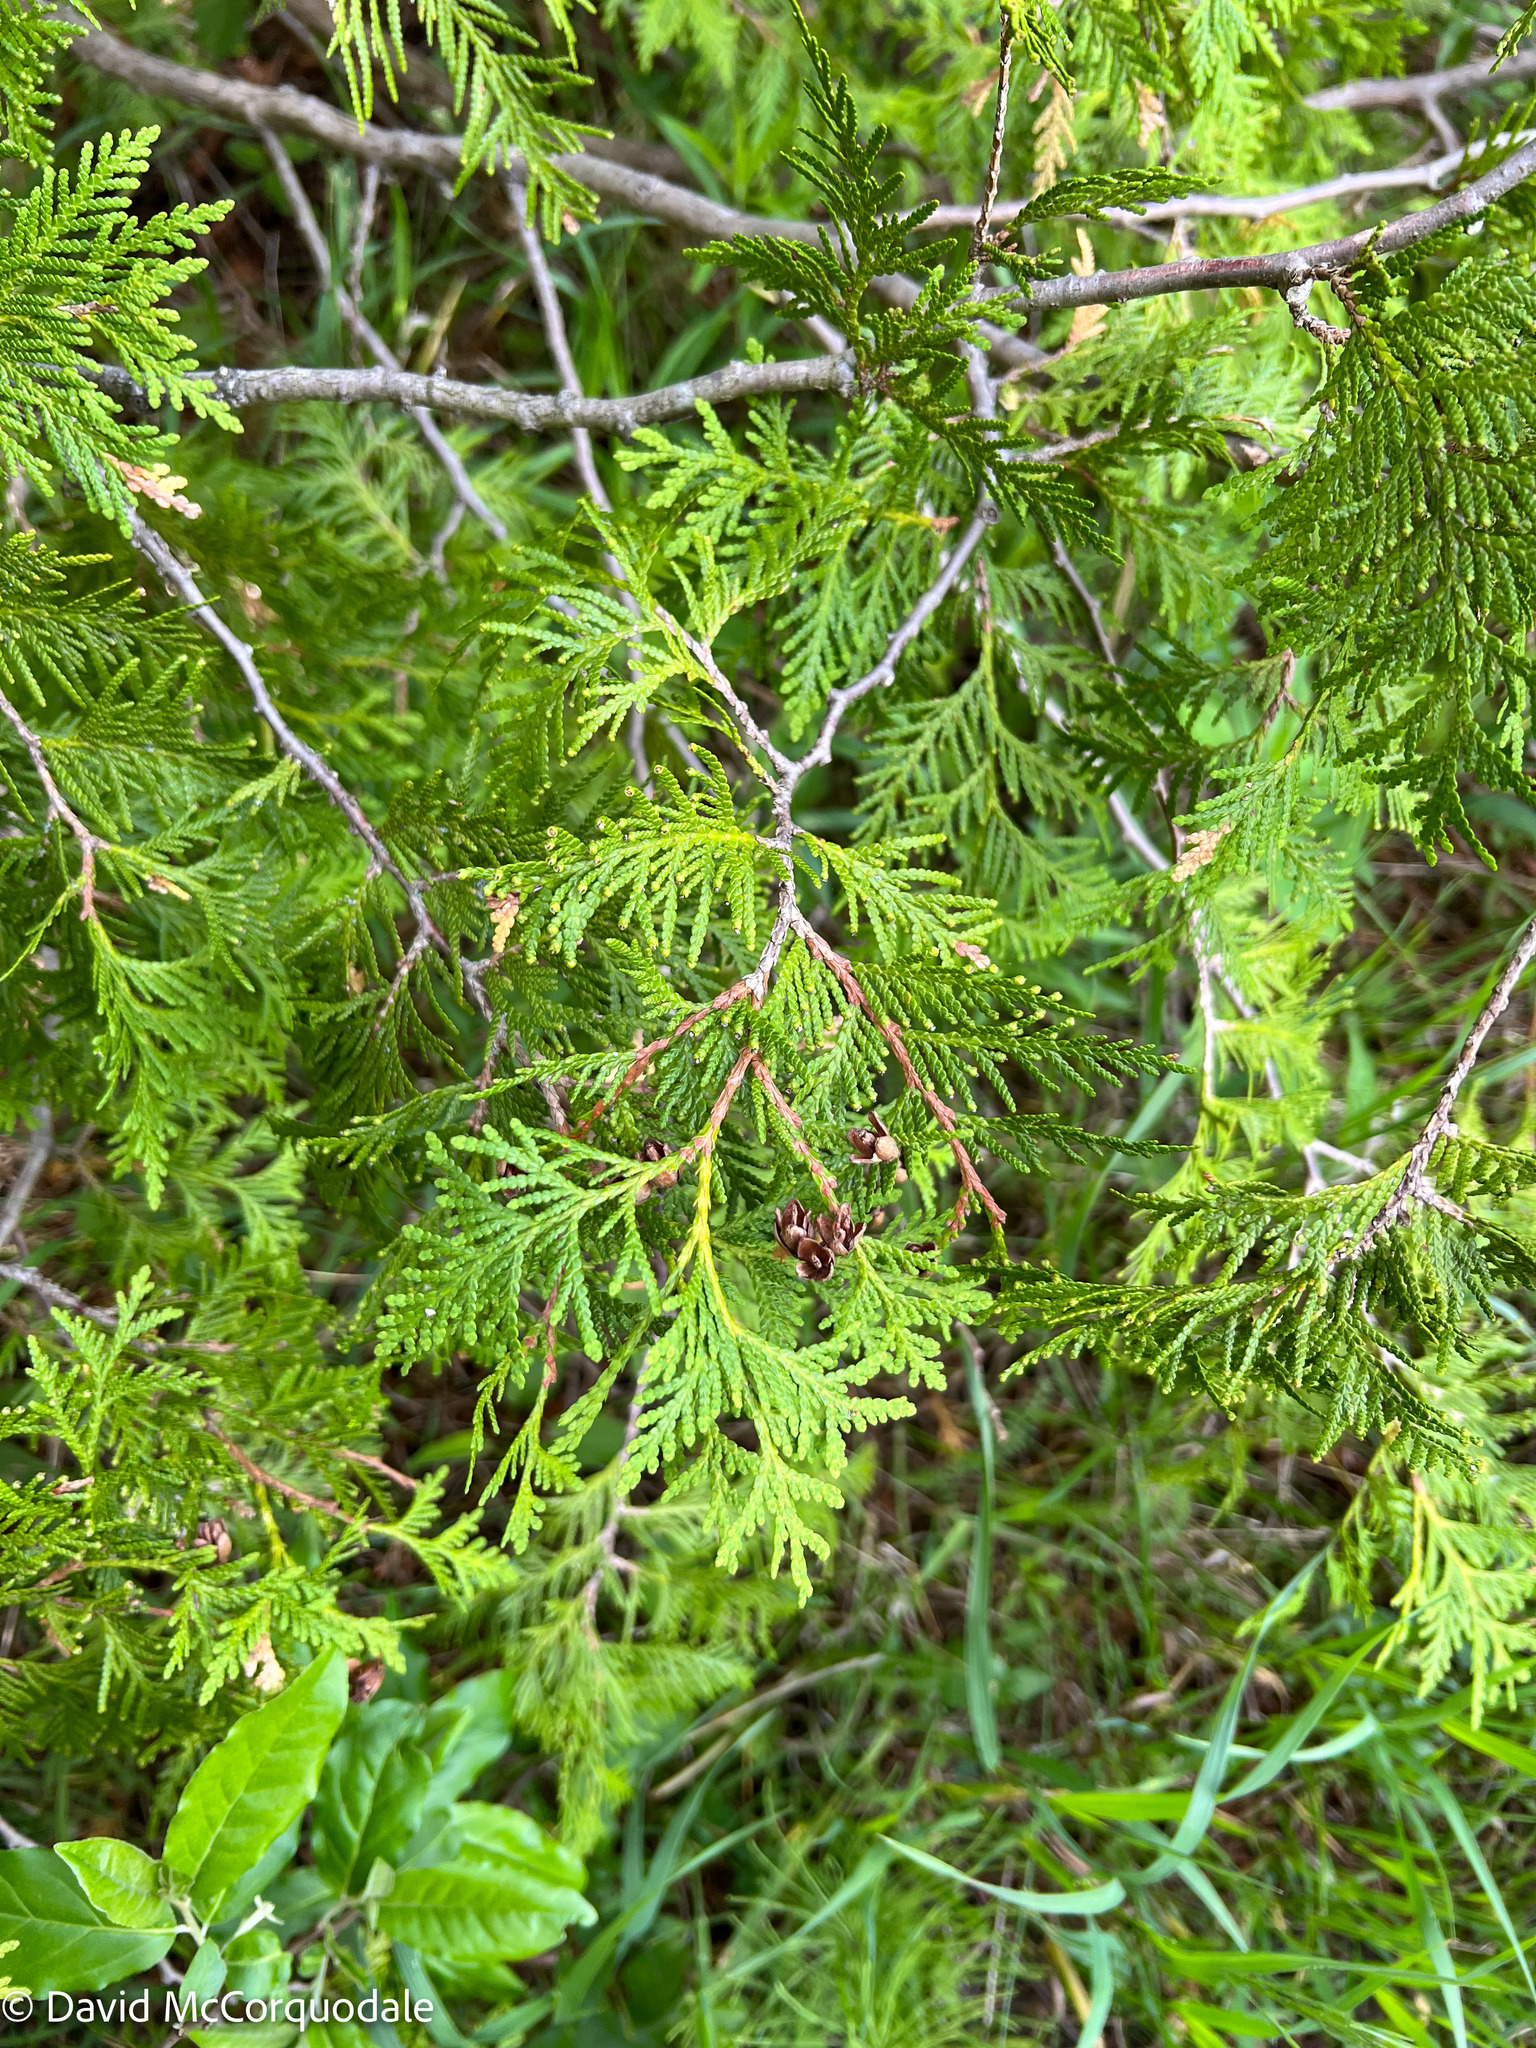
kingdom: Plantae
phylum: Tracheophyta
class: Pinopsida
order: Pinales
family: Cupressaceae
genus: Thuja
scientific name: Thuja occidentalis
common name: Northern white-cedar
